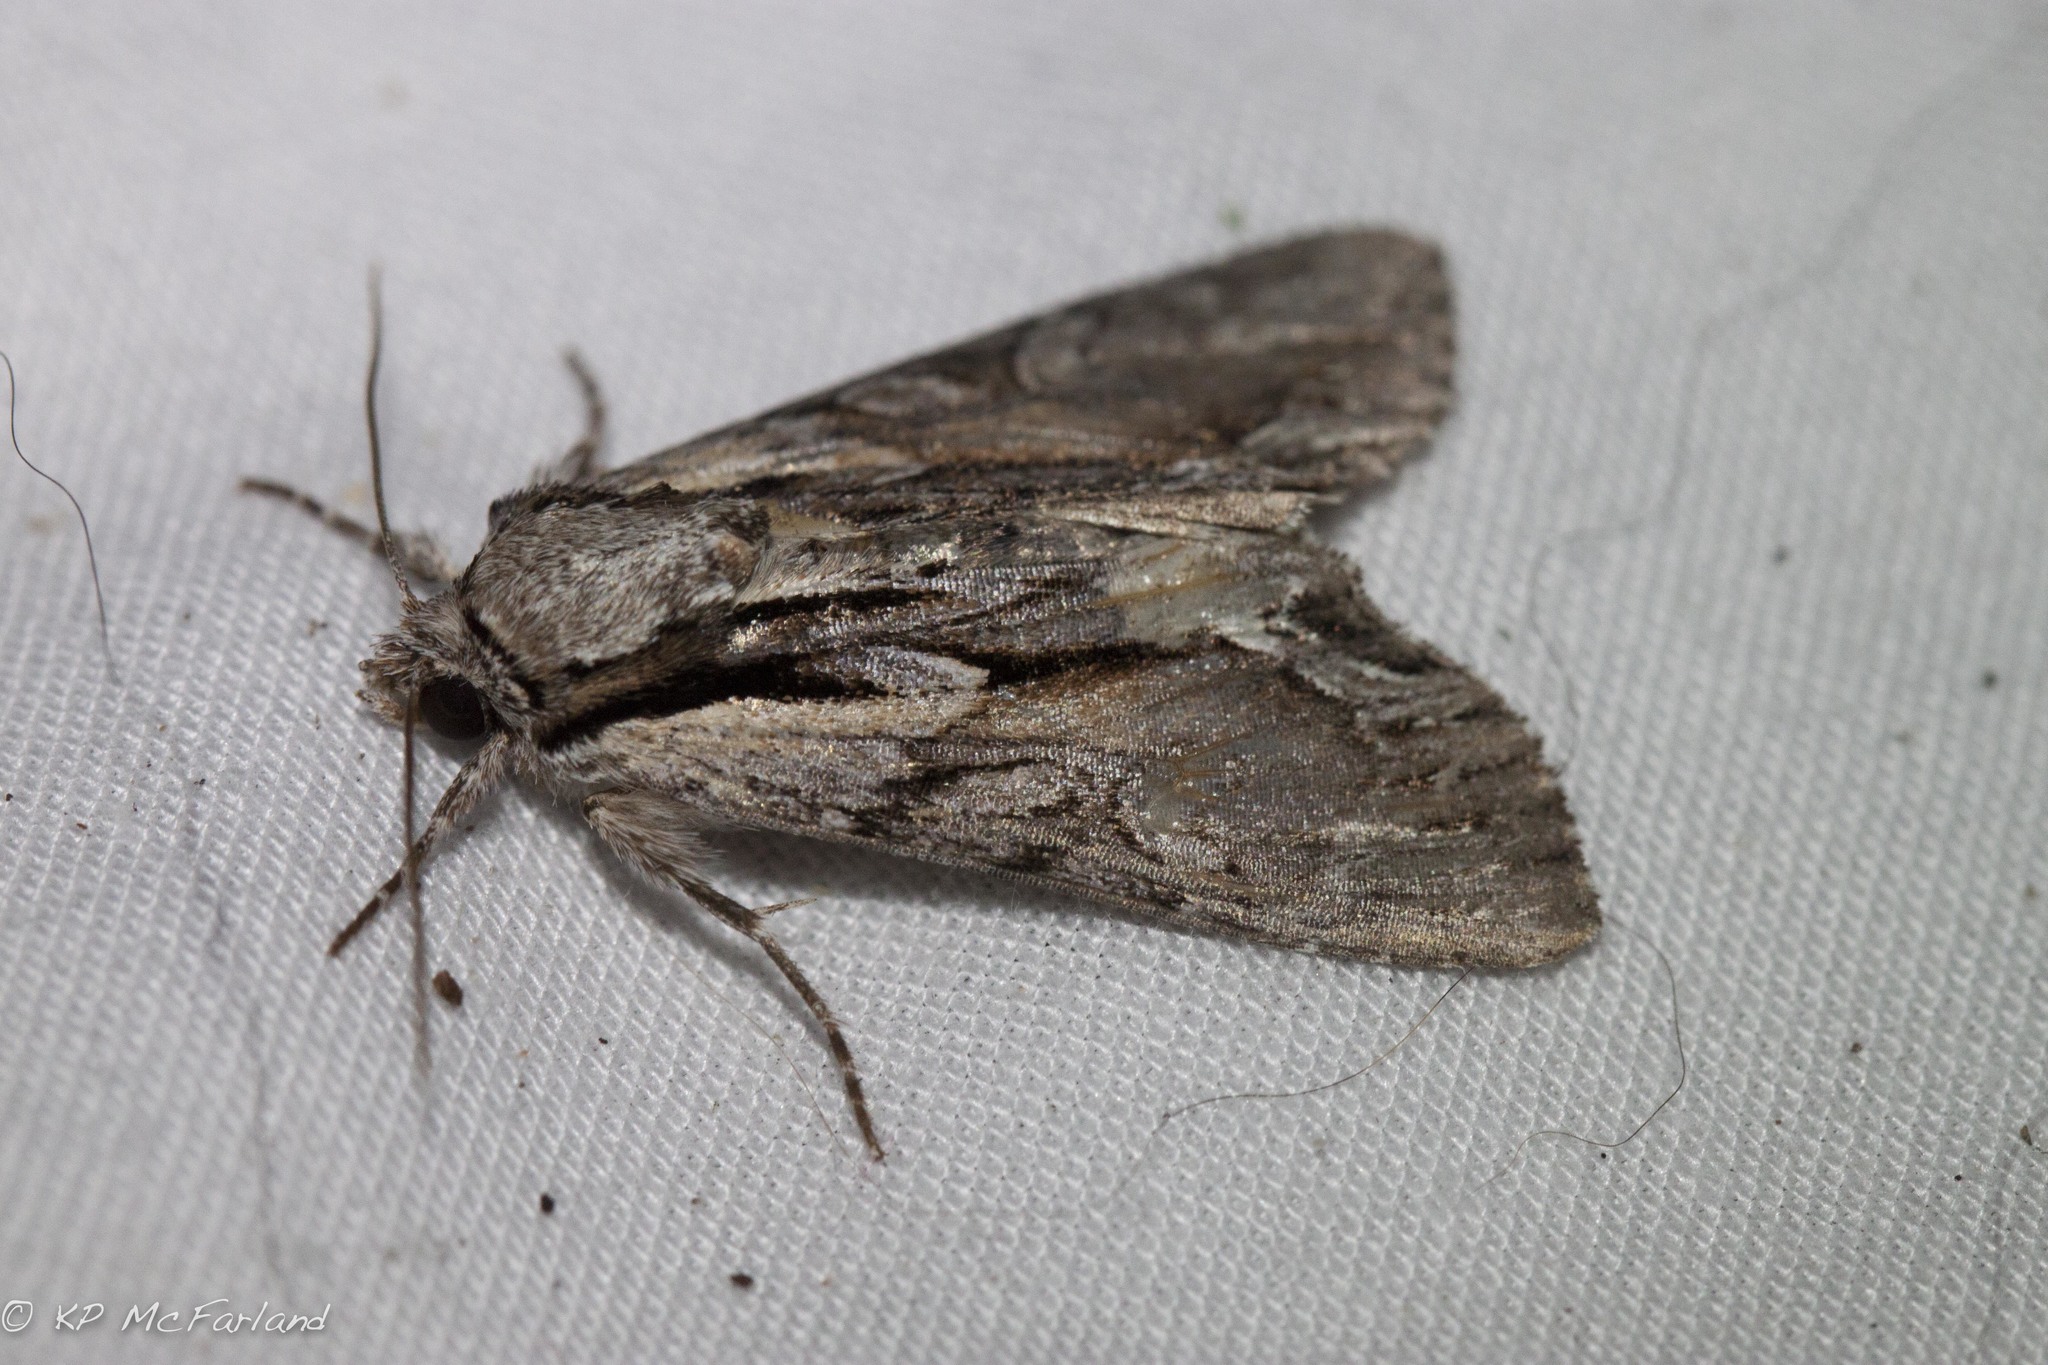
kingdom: Animalia
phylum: Arthropoda
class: Insecta
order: Lepidoptera
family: Noctuidae
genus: Hyppa
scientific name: Hyppa xylinoides
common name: Common hyppa moth
